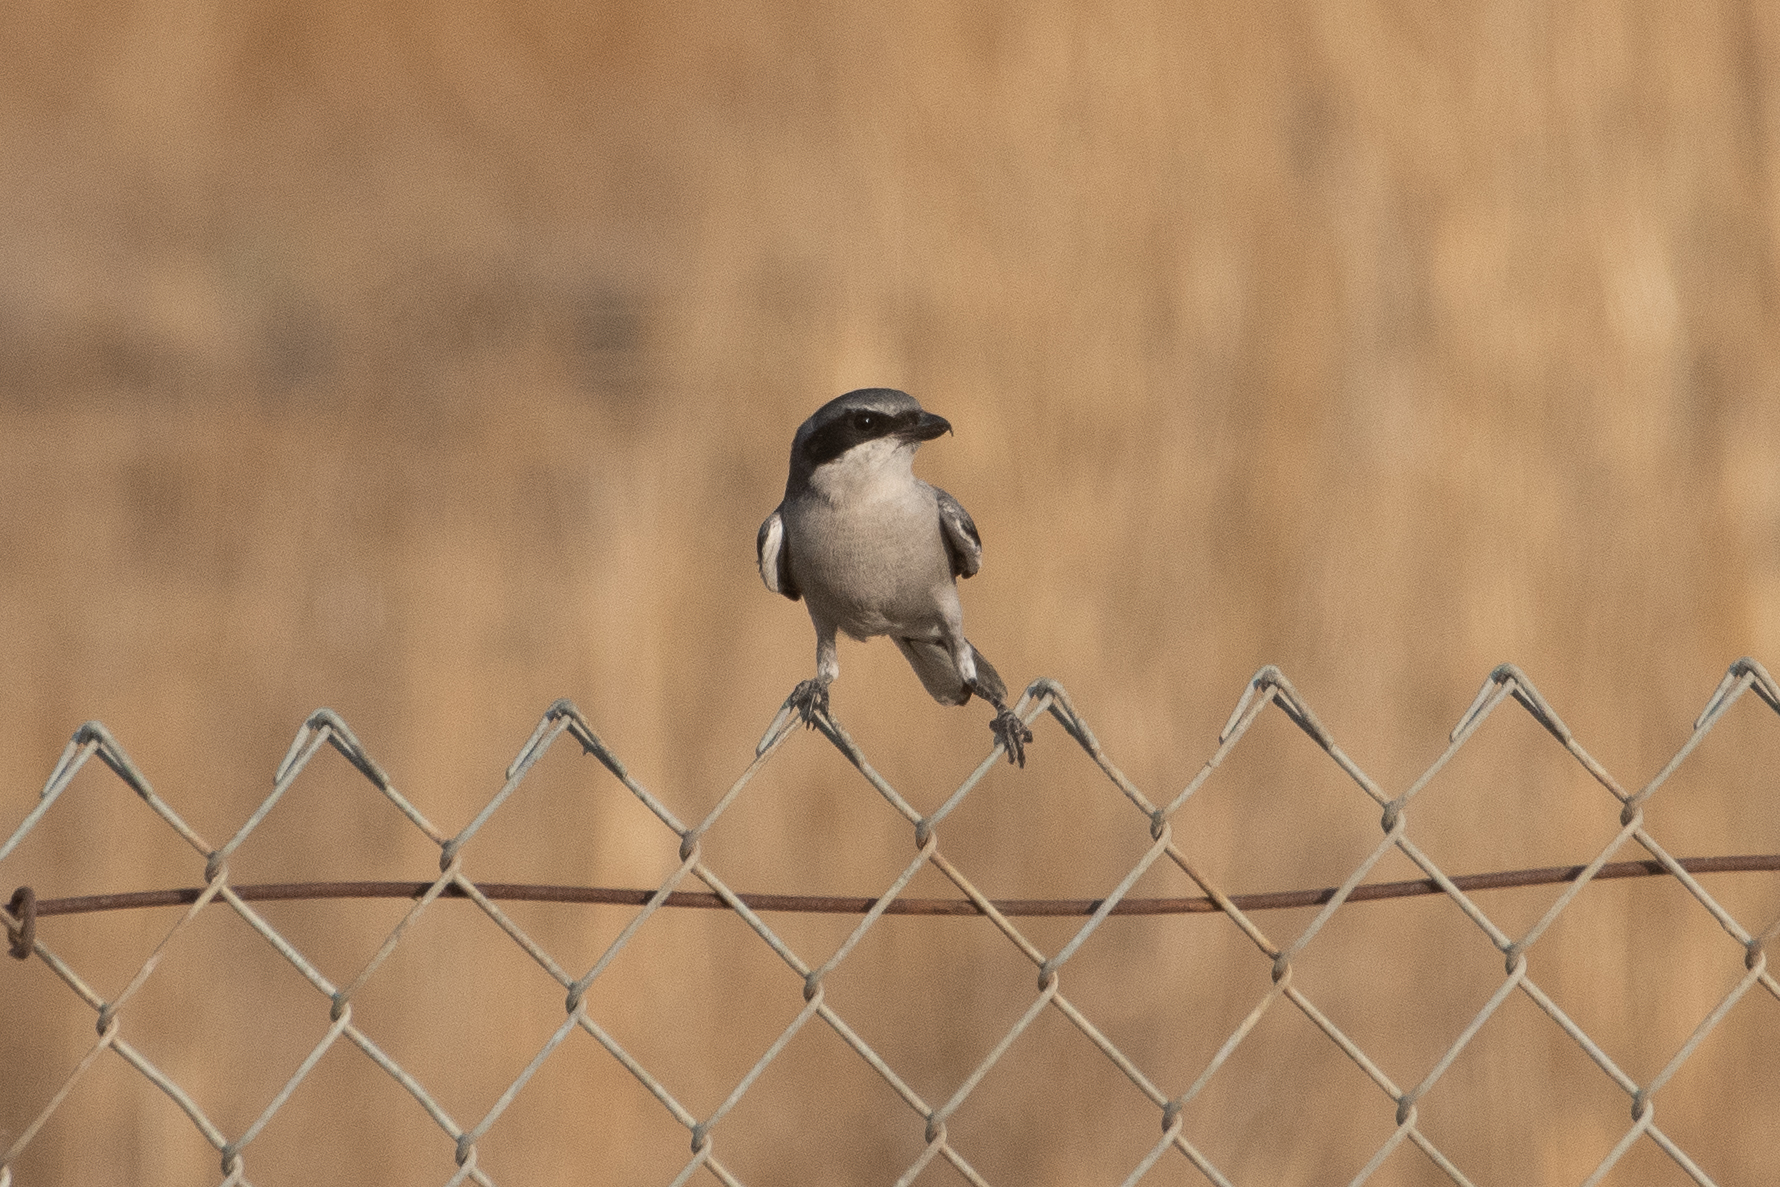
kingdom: Animalia
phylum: Chordata
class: Aves
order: Passeriformes
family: Laniidae
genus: Lanius
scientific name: Lanius ludovicianus
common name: Loggerhead shrike
